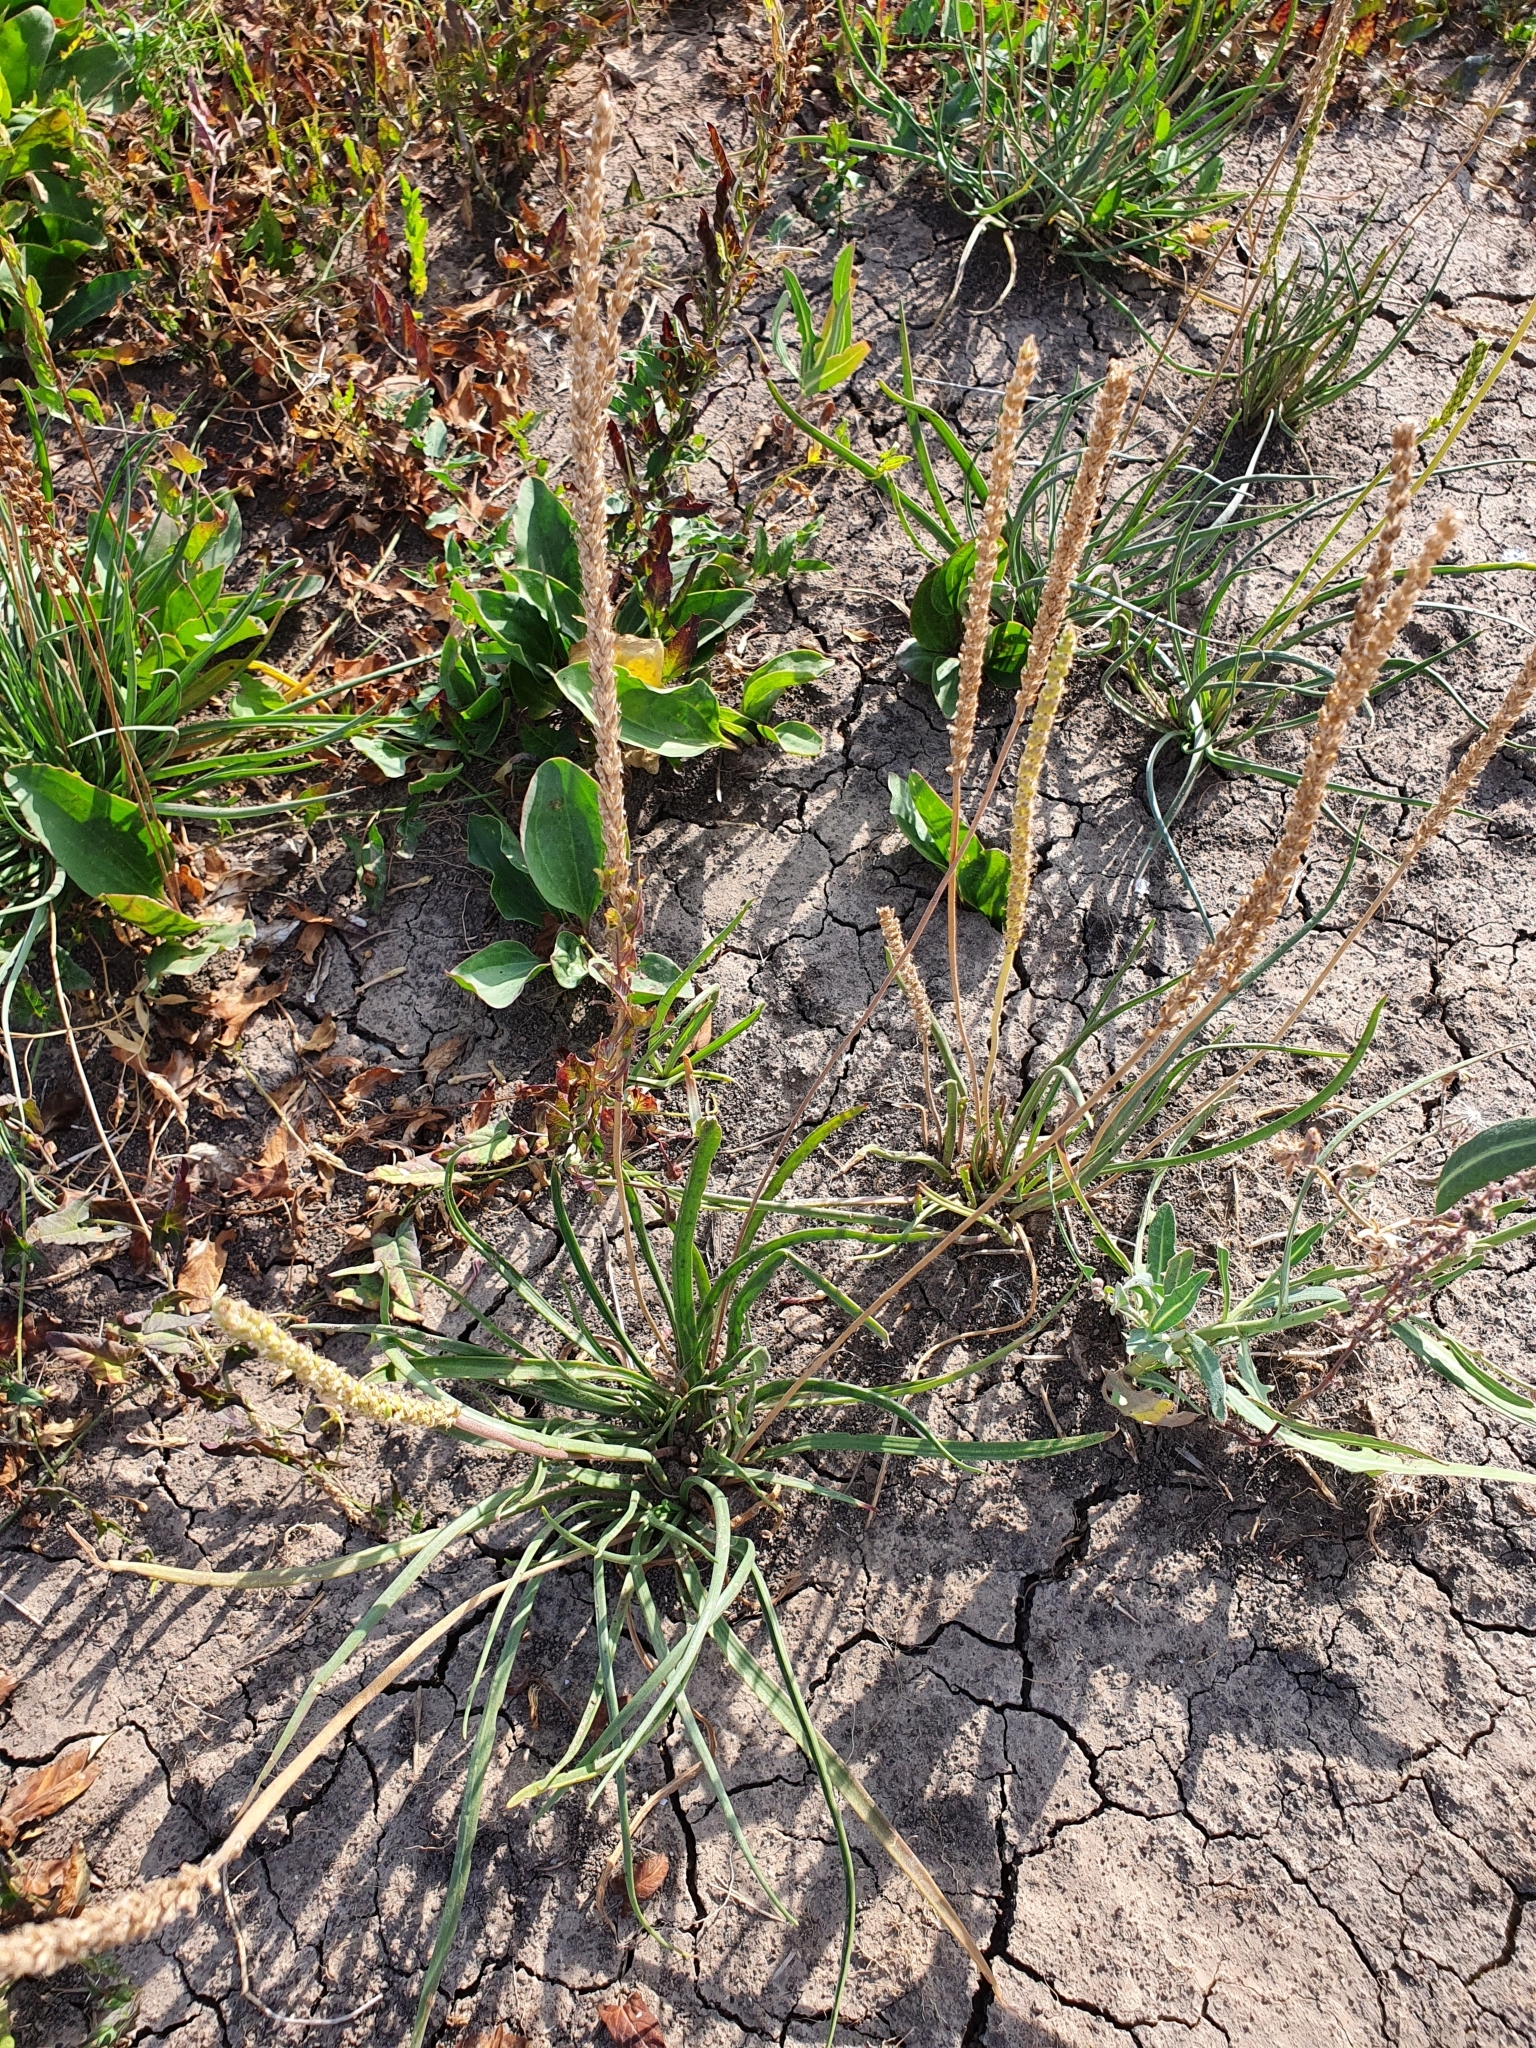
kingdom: Plantae
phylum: Tracheophyta
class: Magnoliopsida
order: Lamiales
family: Plantaginaceae
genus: Plantago
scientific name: Plantago salsa
